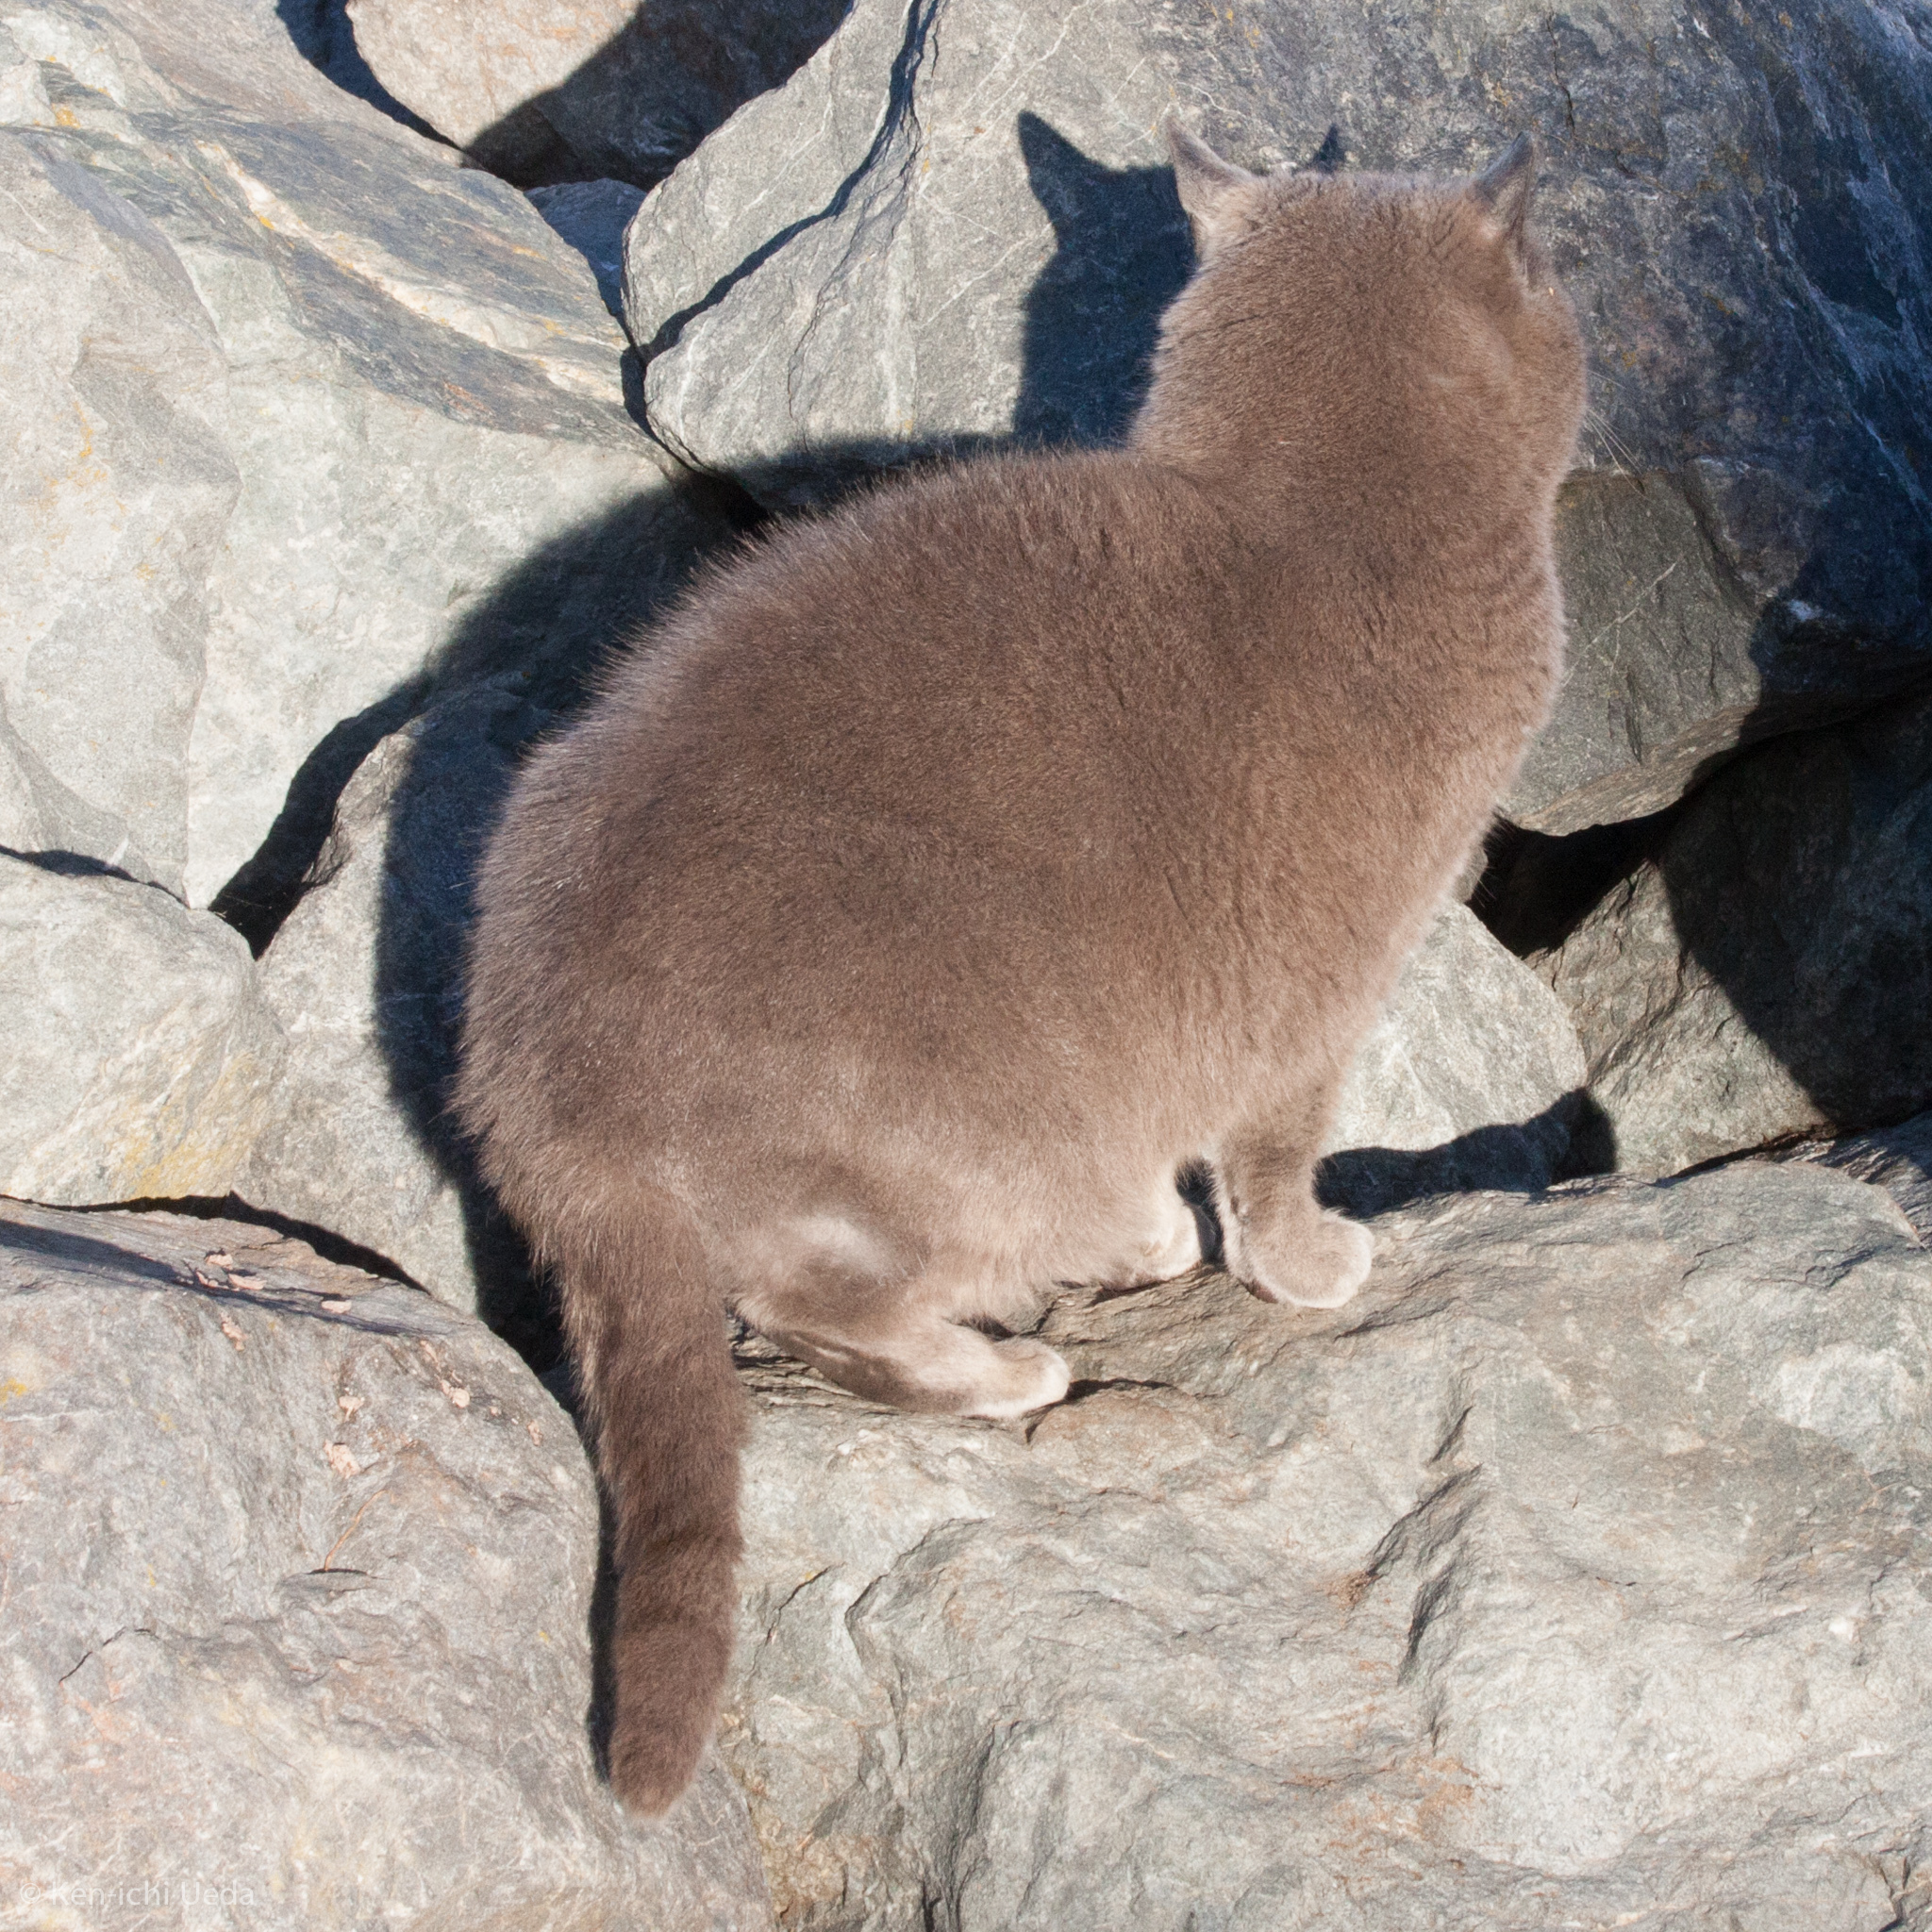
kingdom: Animalia
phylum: Chordata
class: Mammalia
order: Carnivora
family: Felidae
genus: Felis
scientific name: Felis catus
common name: Domestic cat
